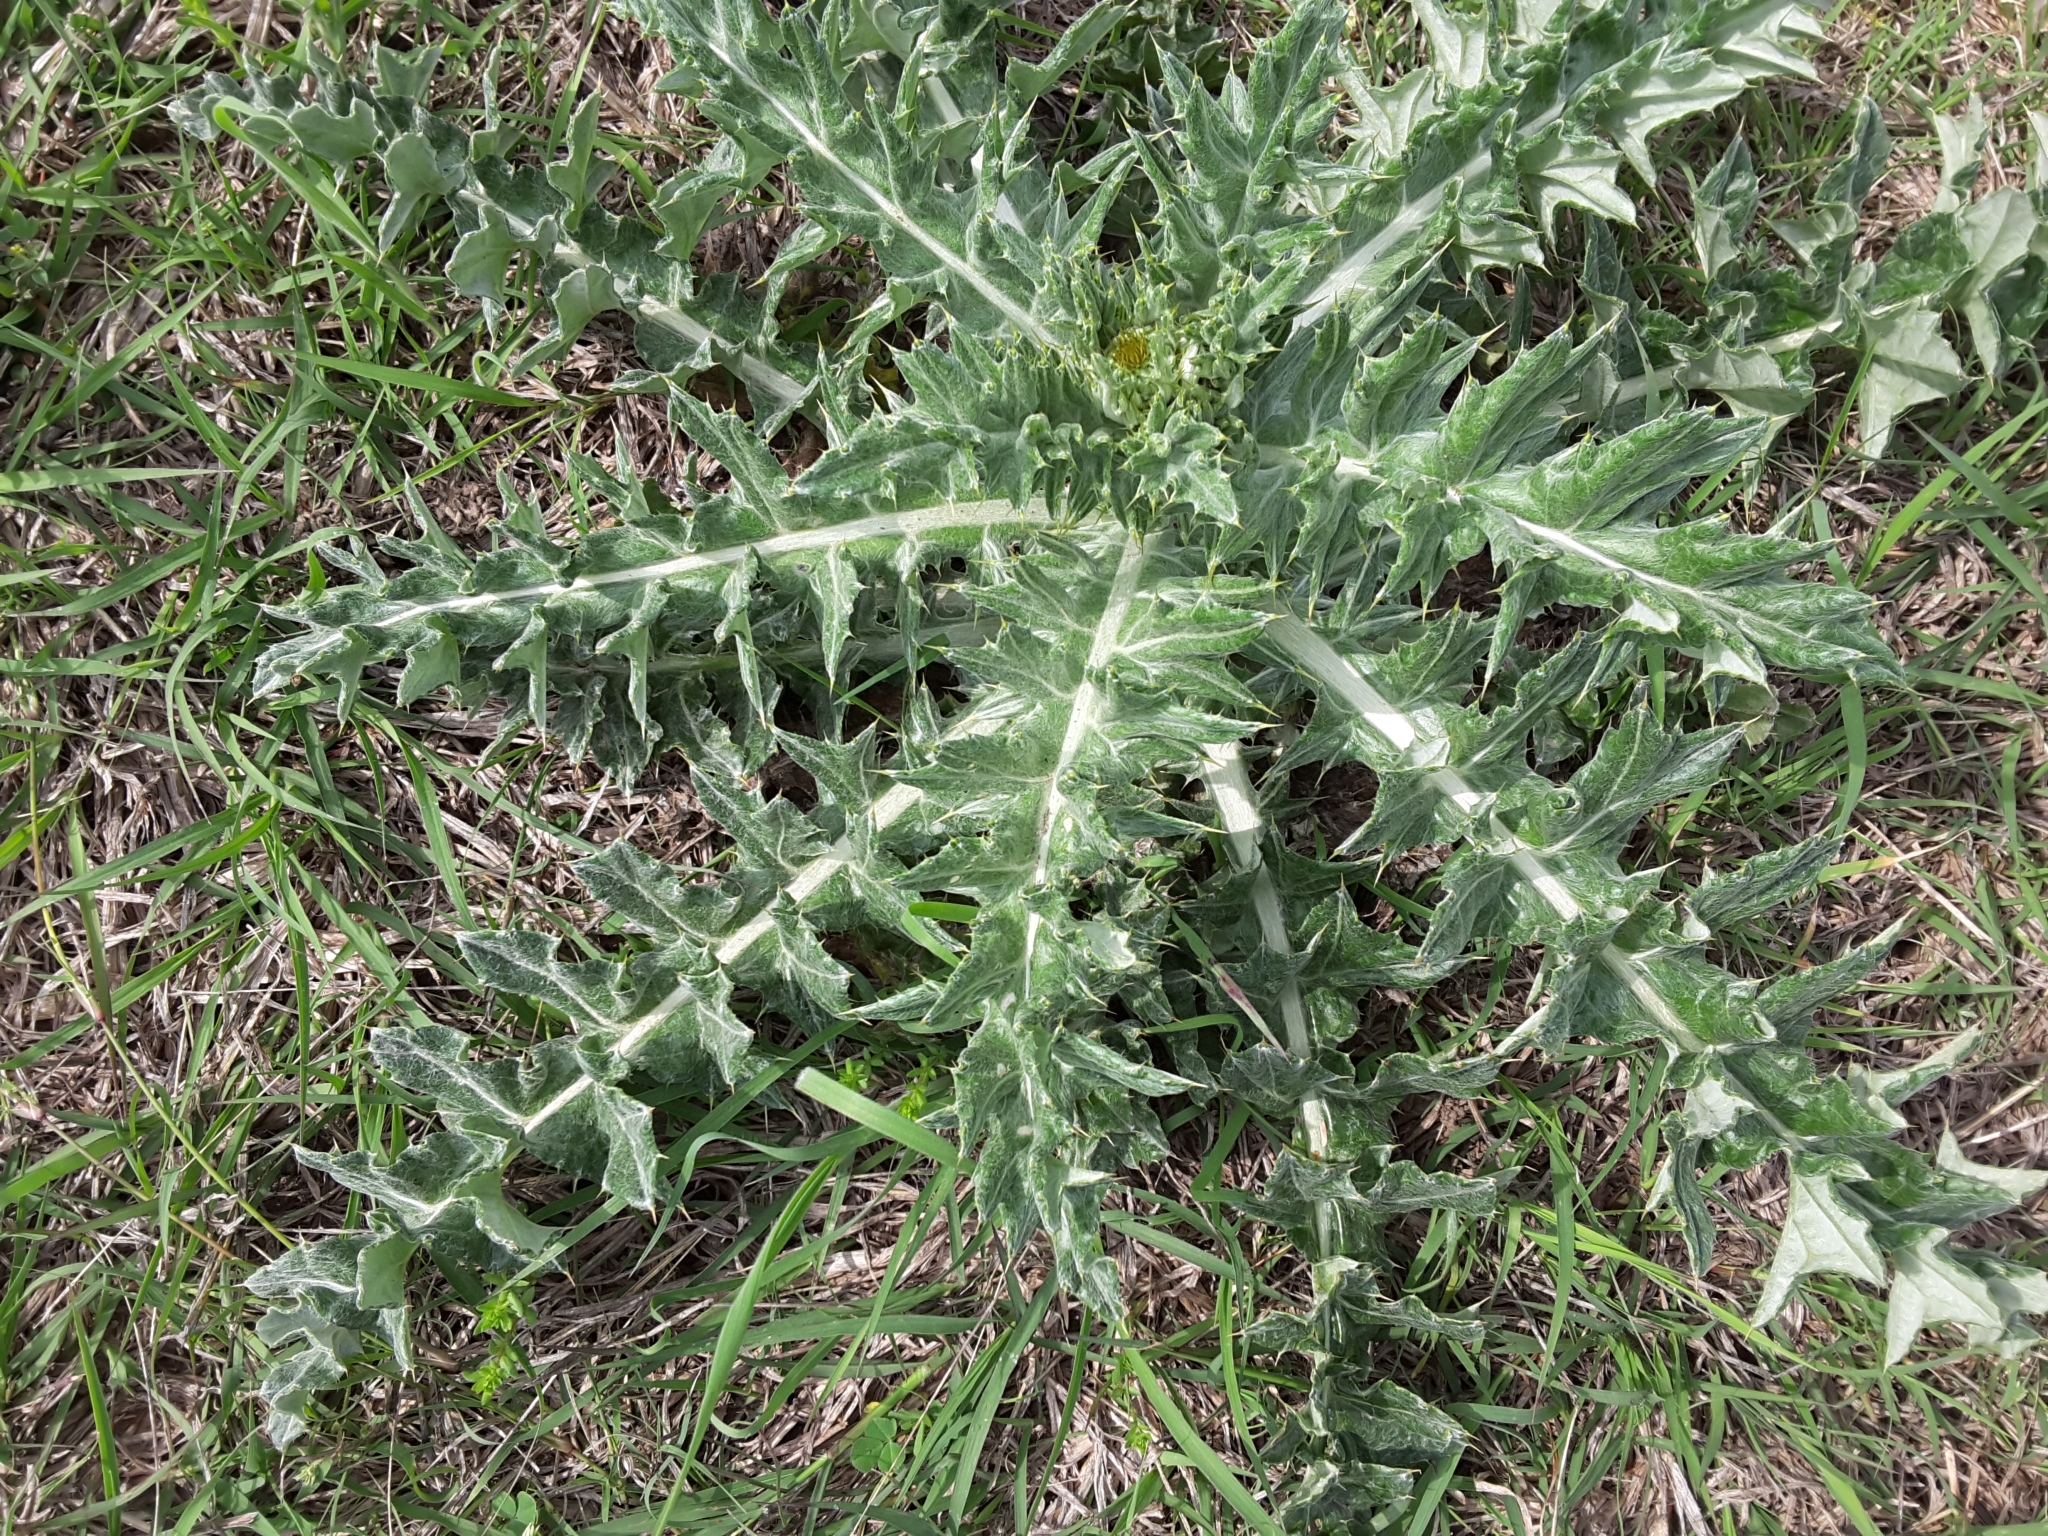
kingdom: Plantae
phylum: Tracheophyta
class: Magnoliopsida
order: Asterales
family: Asteraceae
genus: Cirsium
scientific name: Cirsium undulatum
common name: Pasture thistle
